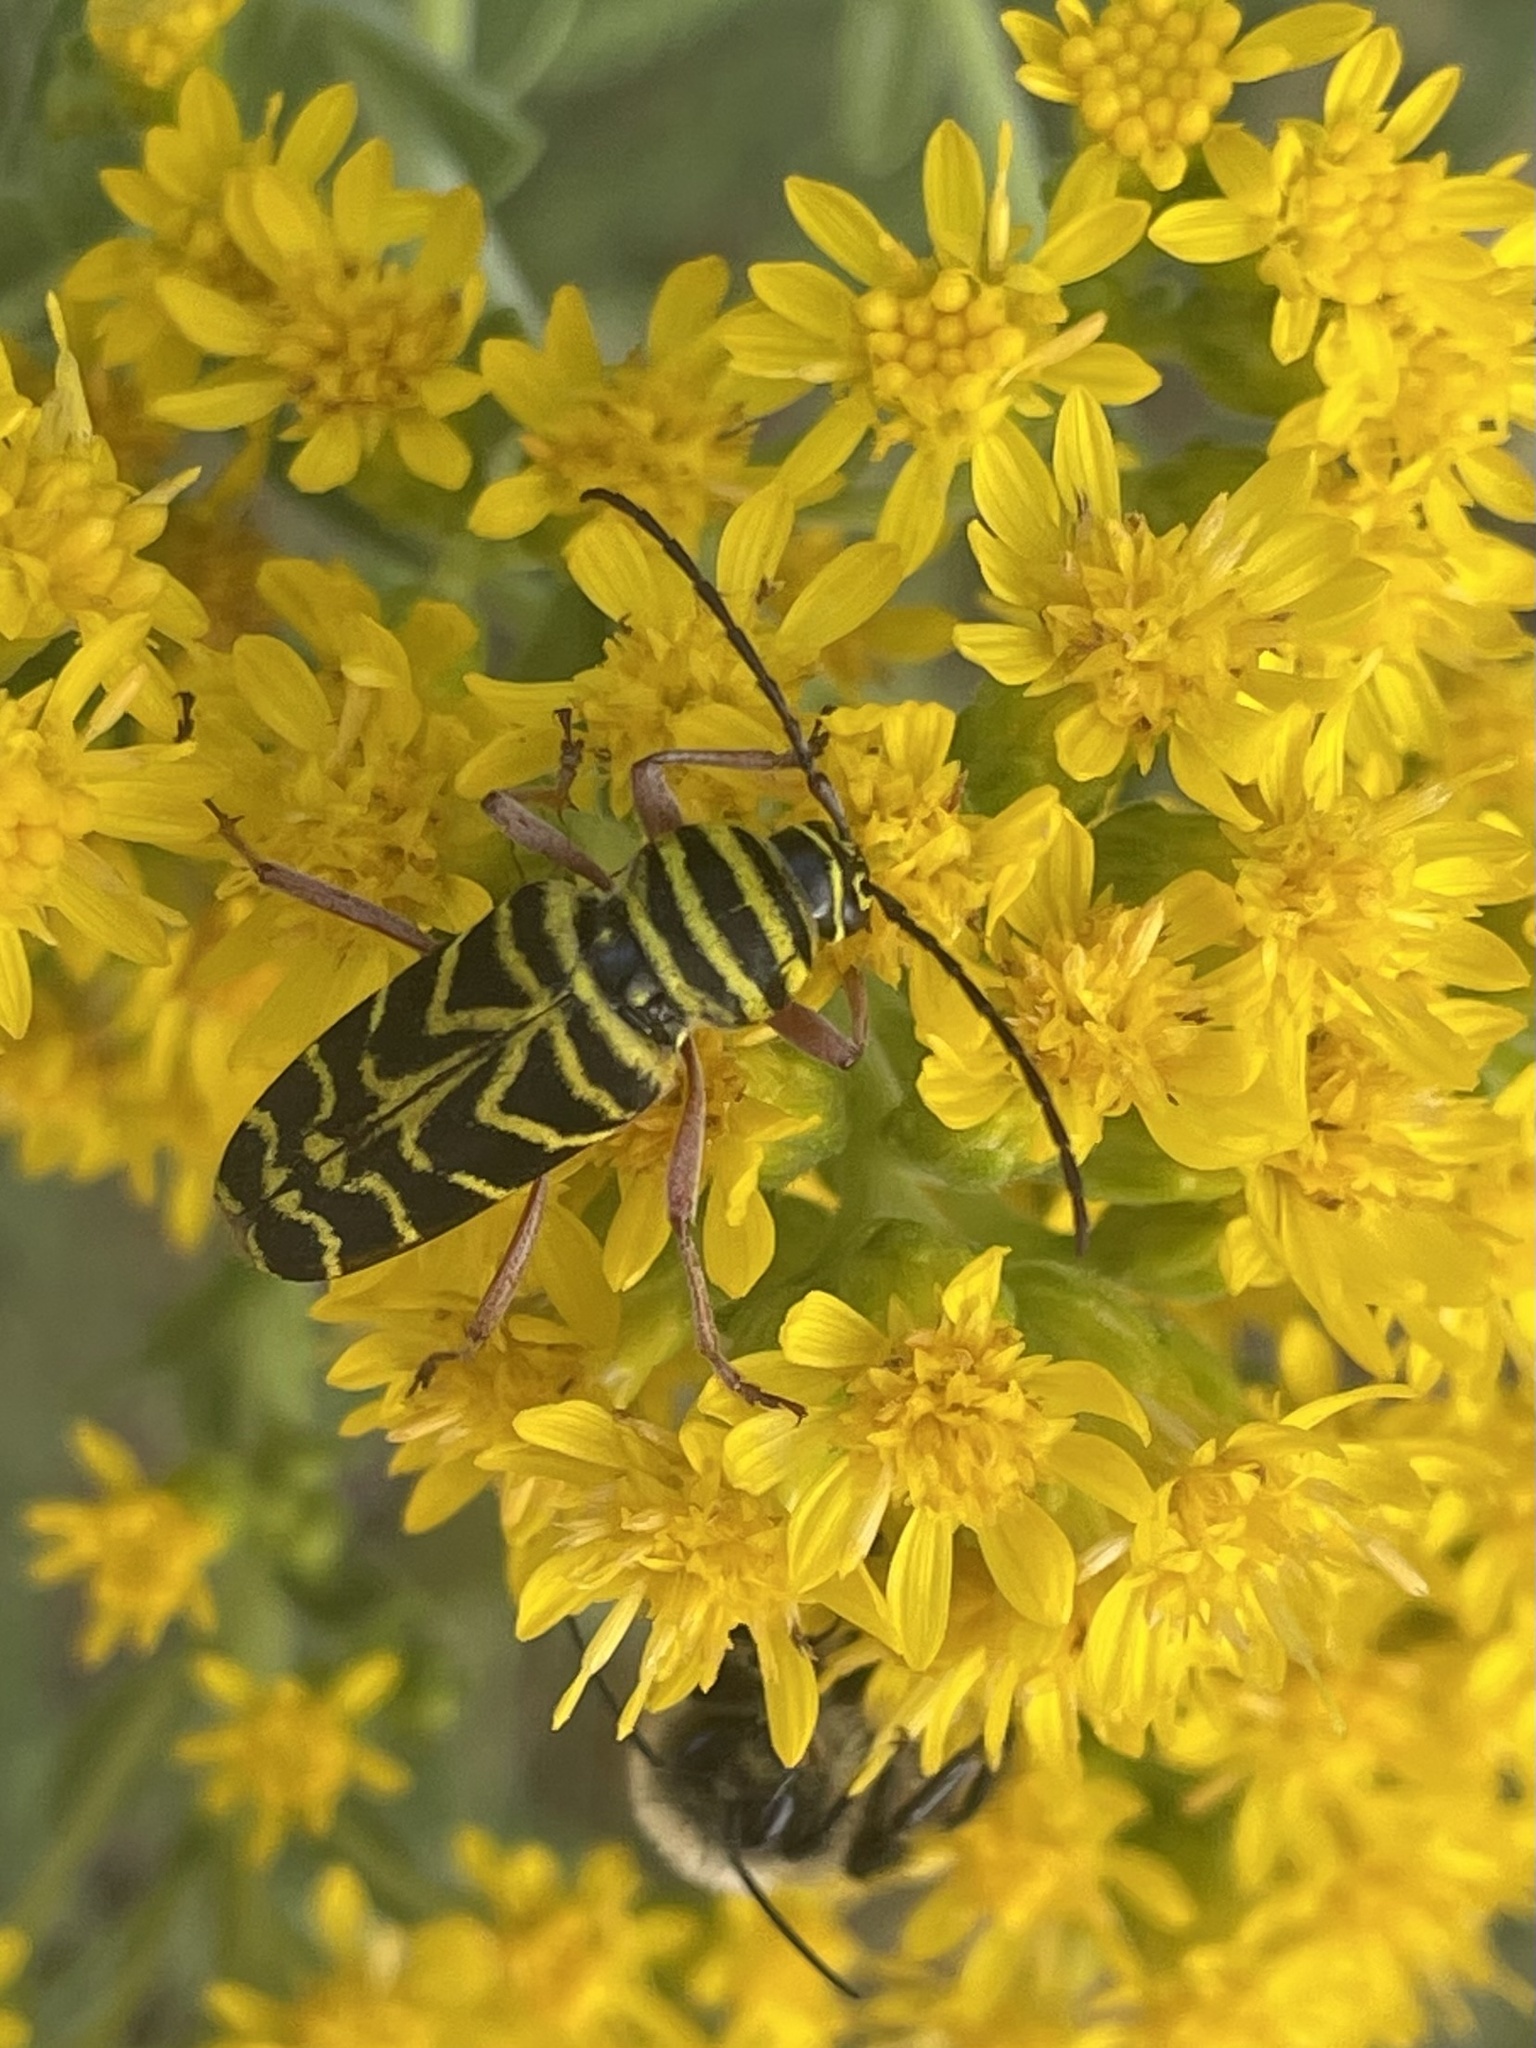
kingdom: Animalia
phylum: Arthropoda
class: Insecta
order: Coleoptera
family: Cerambycidae
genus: Megacyllene
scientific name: Megacyllene robiniae
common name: Locust borer
